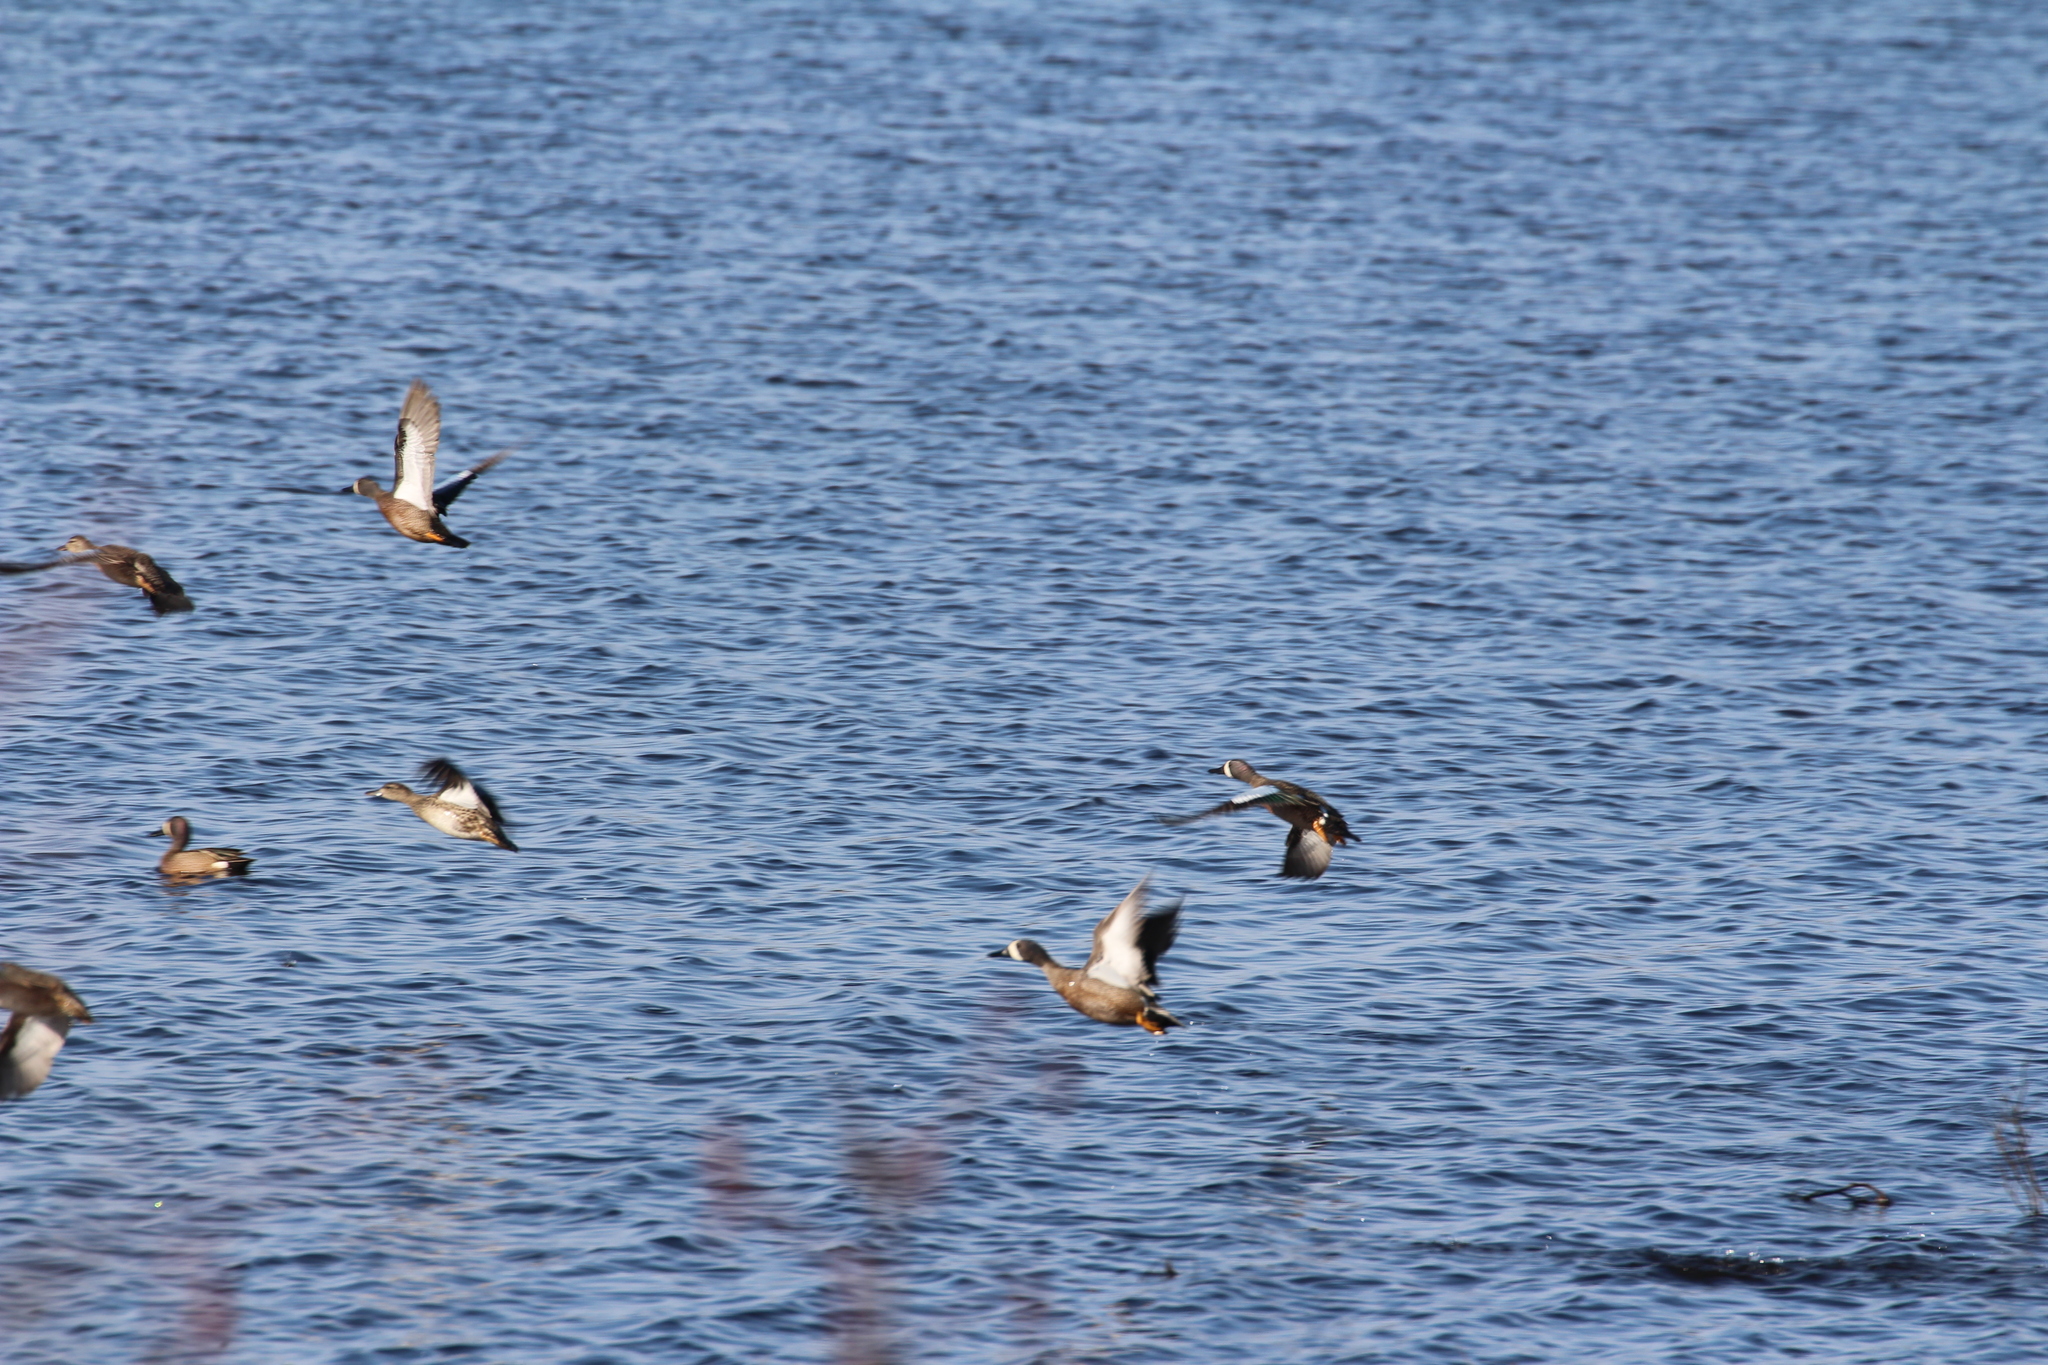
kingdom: Animalia
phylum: Chordata
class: Aves
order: Anseriformes
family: Anatidae
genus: Spatula
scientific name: Spatula discors
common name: Blue-winged teal
